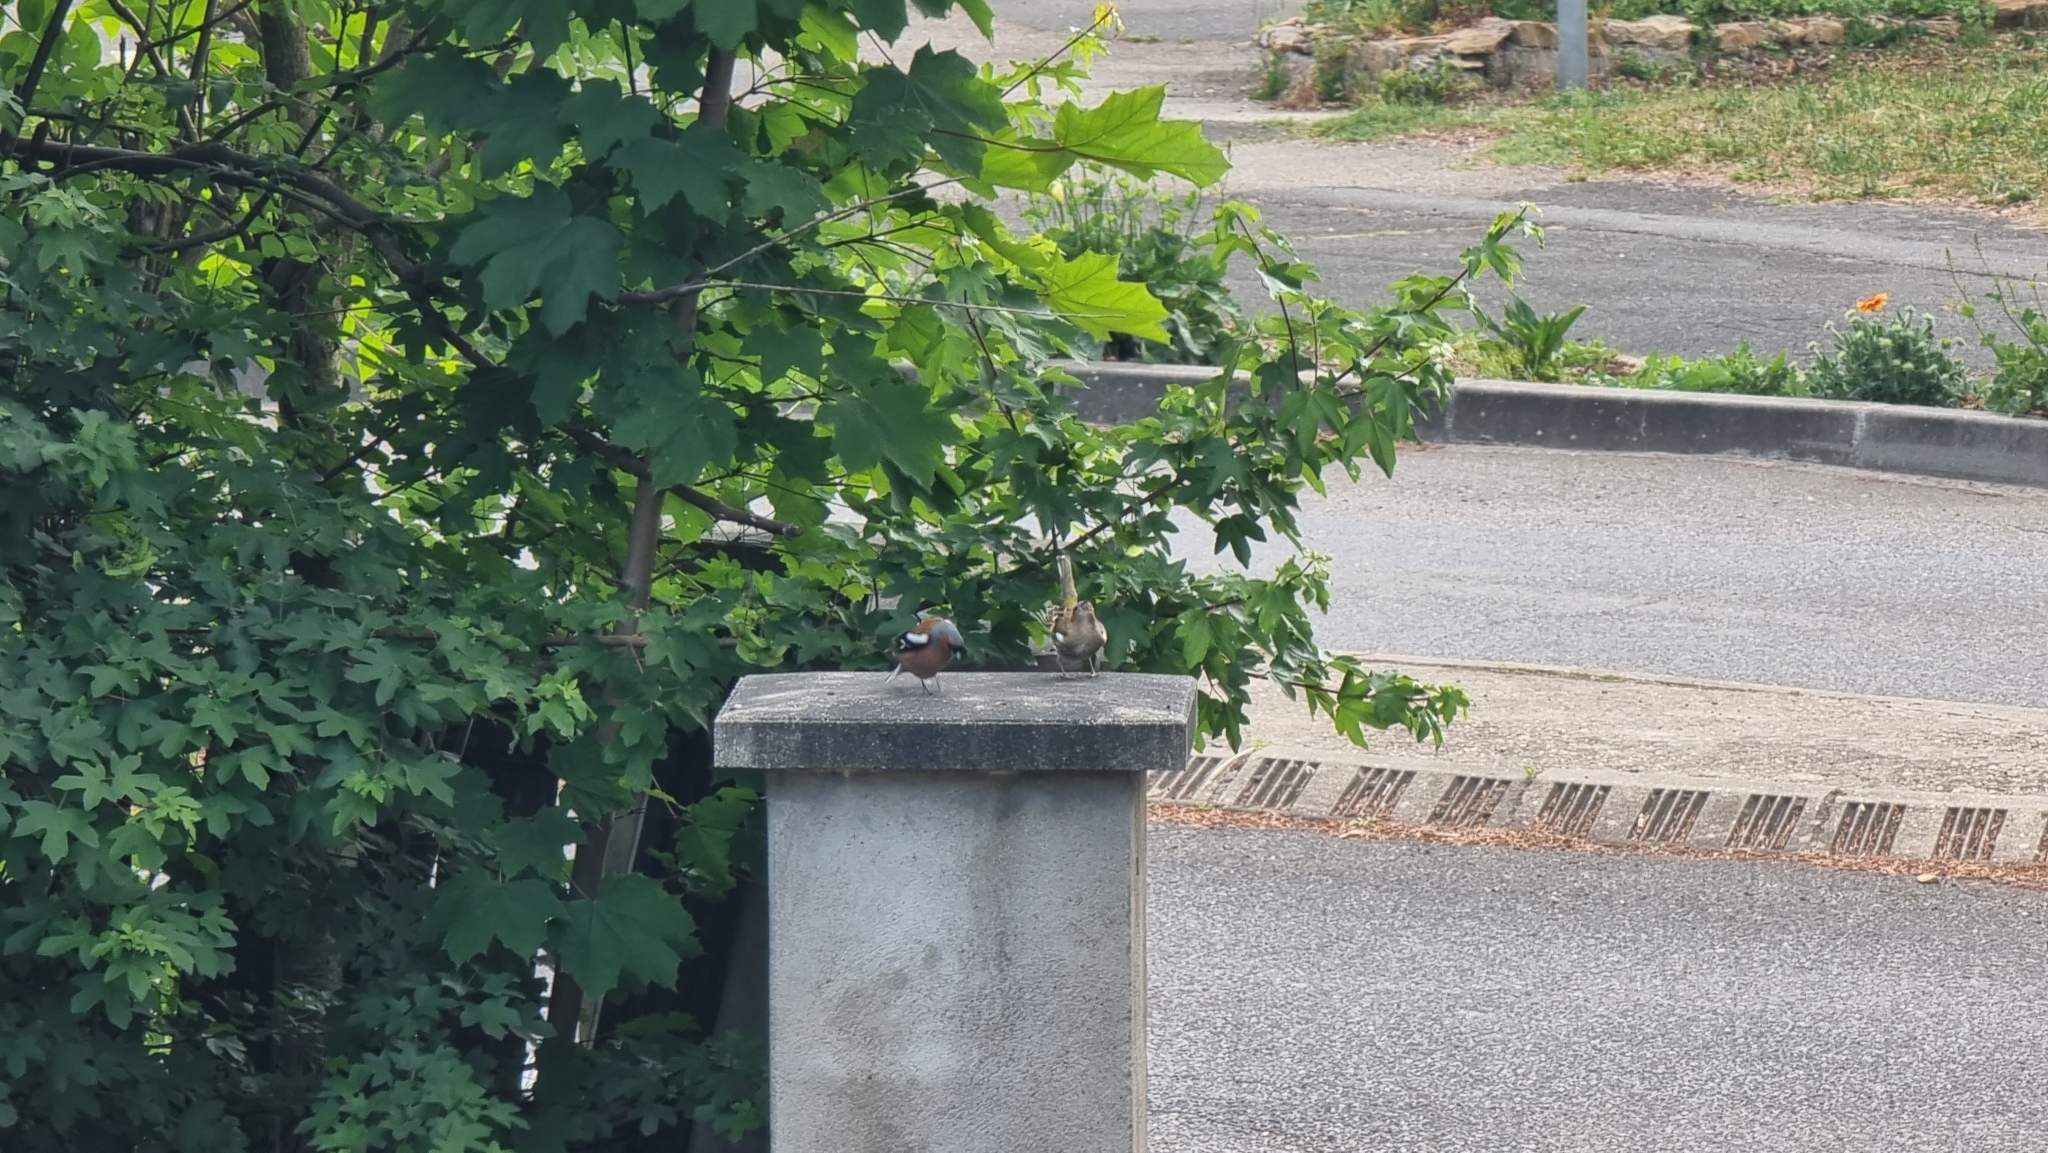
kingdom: Animalia
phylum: Chordata
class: Aves
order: Passeriformes
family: Fringillidae
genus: Fringilla
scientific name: Fringilla coelebs
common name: Common chaffinch
